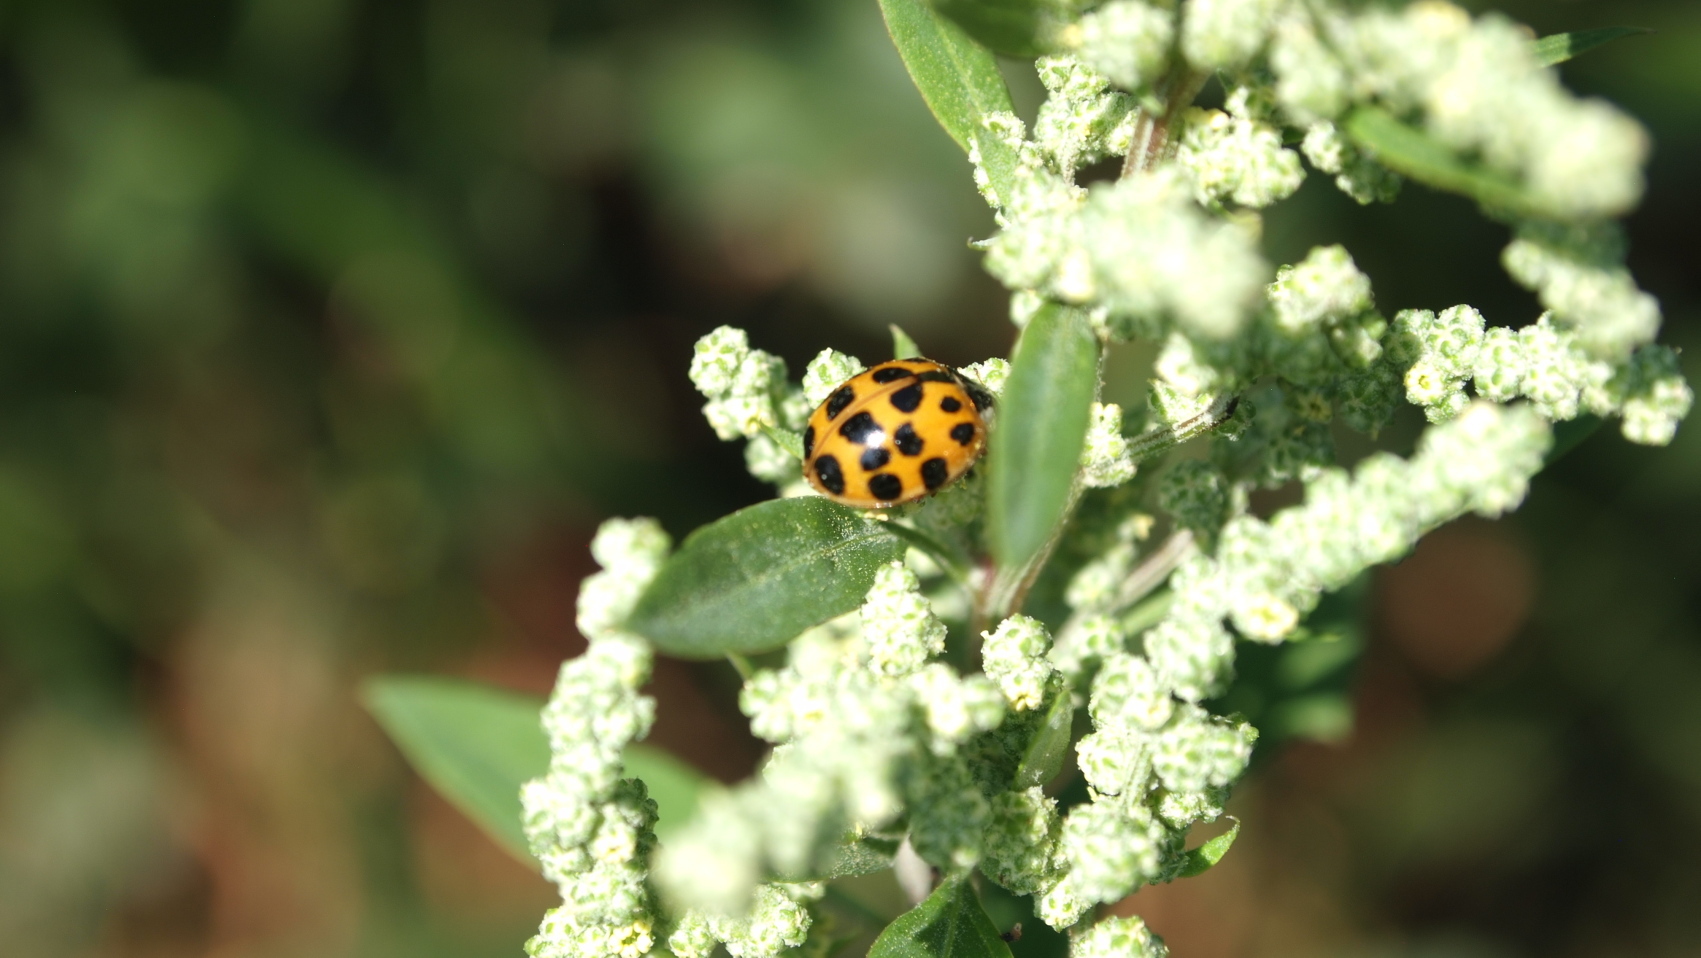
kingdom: Animalia
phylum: Arthropoda
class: Insecta
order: Coleoptera
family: Coccinellidae
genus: Harmonia
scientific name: Harmonia axyridis
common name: Harlequin ladybird
